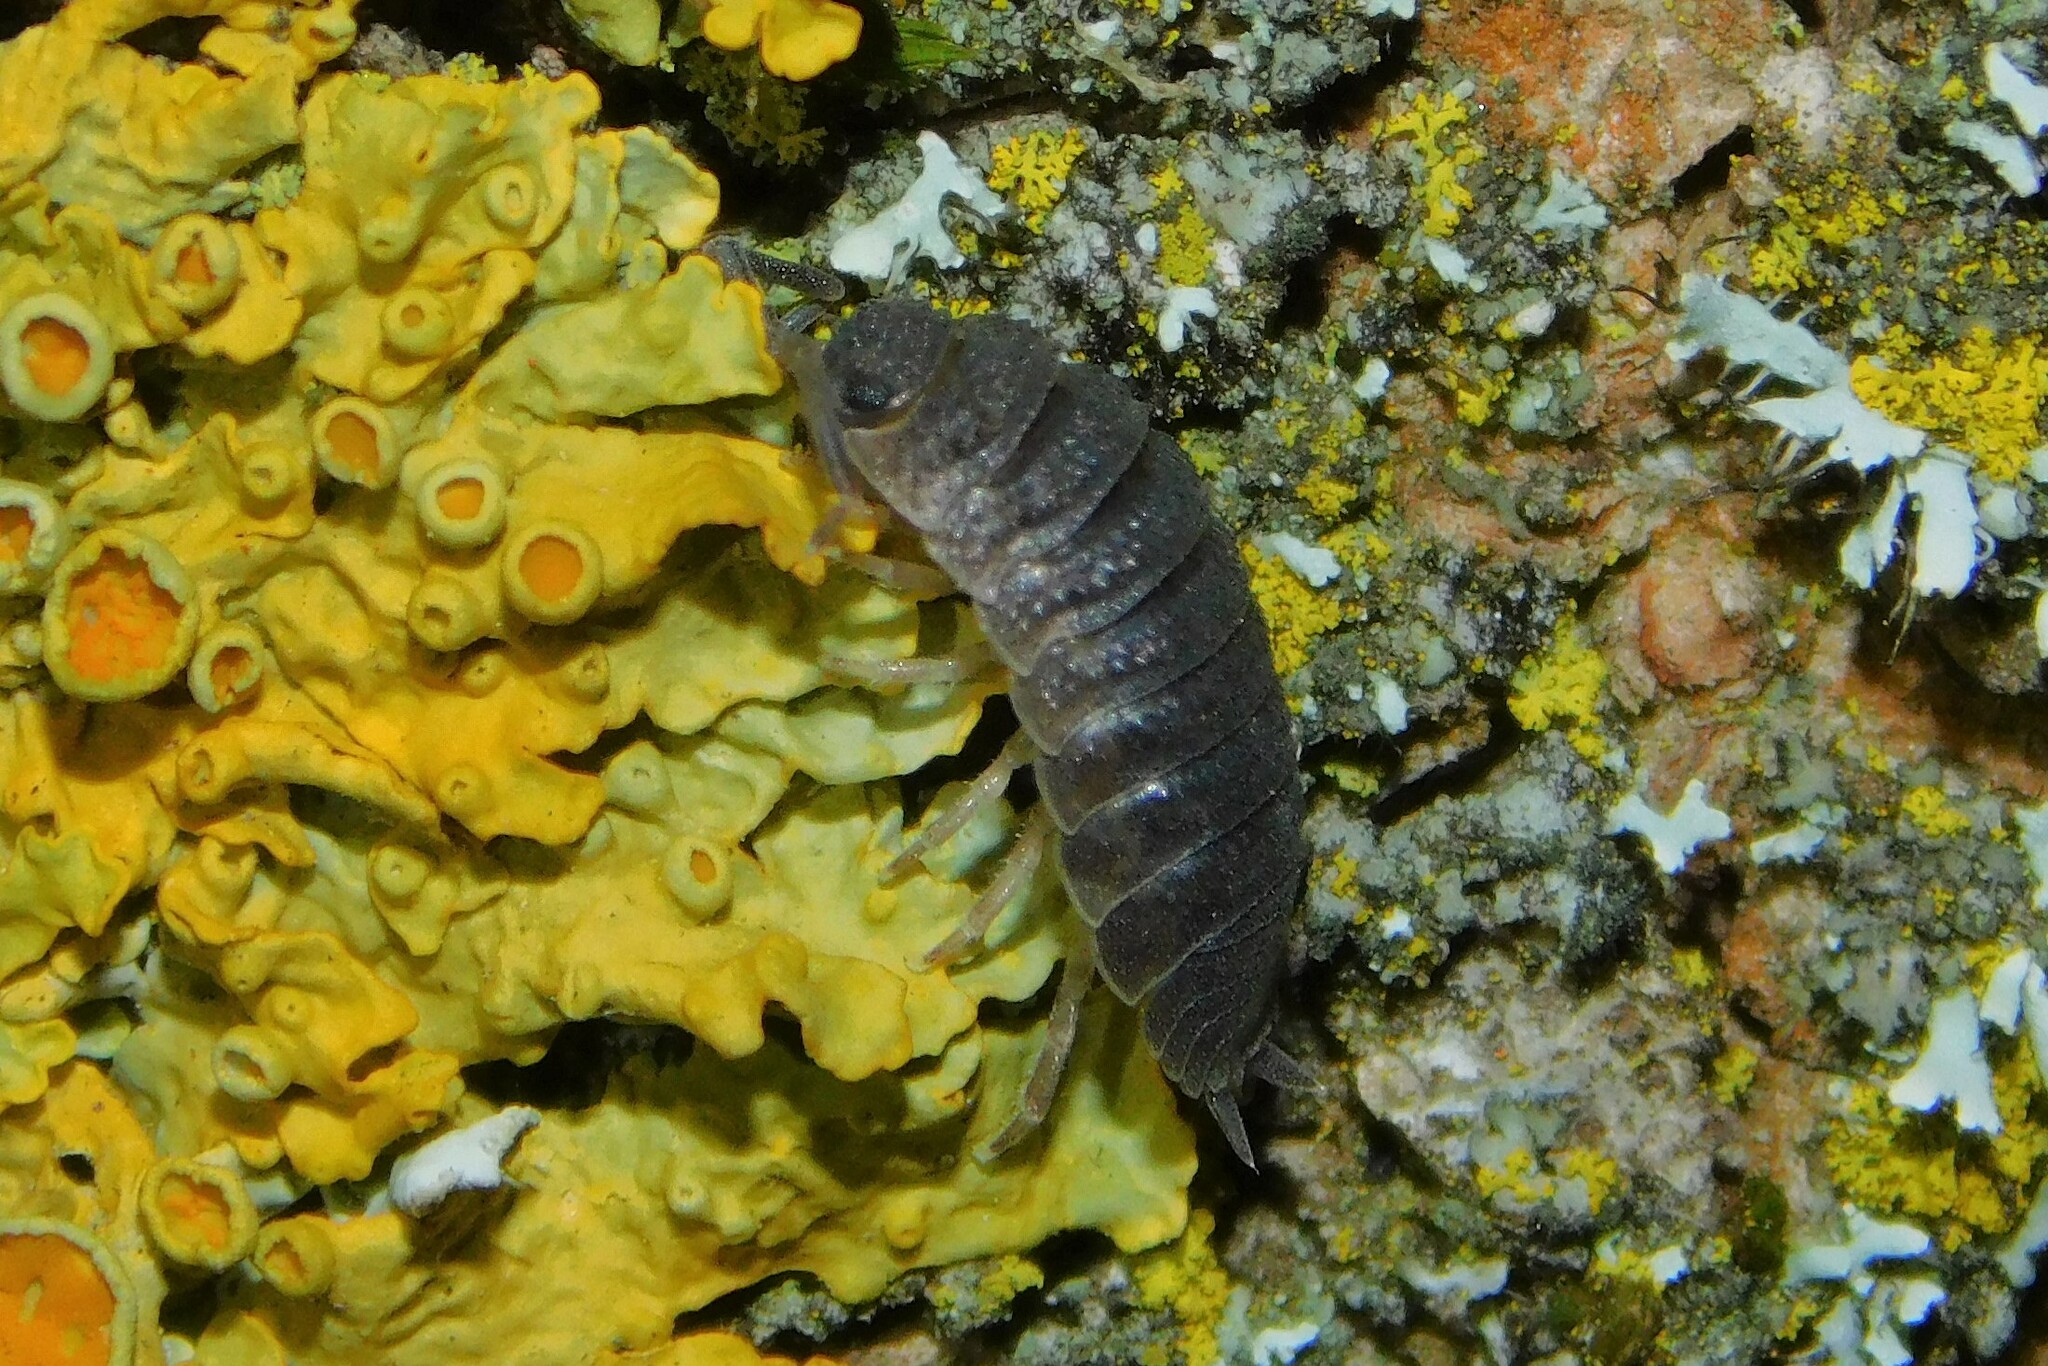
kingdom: Animalia
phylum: Arthropoda
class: Malacostraca
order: Isopoda
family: Porcellionidae
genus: Porcellio
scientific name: Porcellio scaber
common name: Common rough woodlouse
